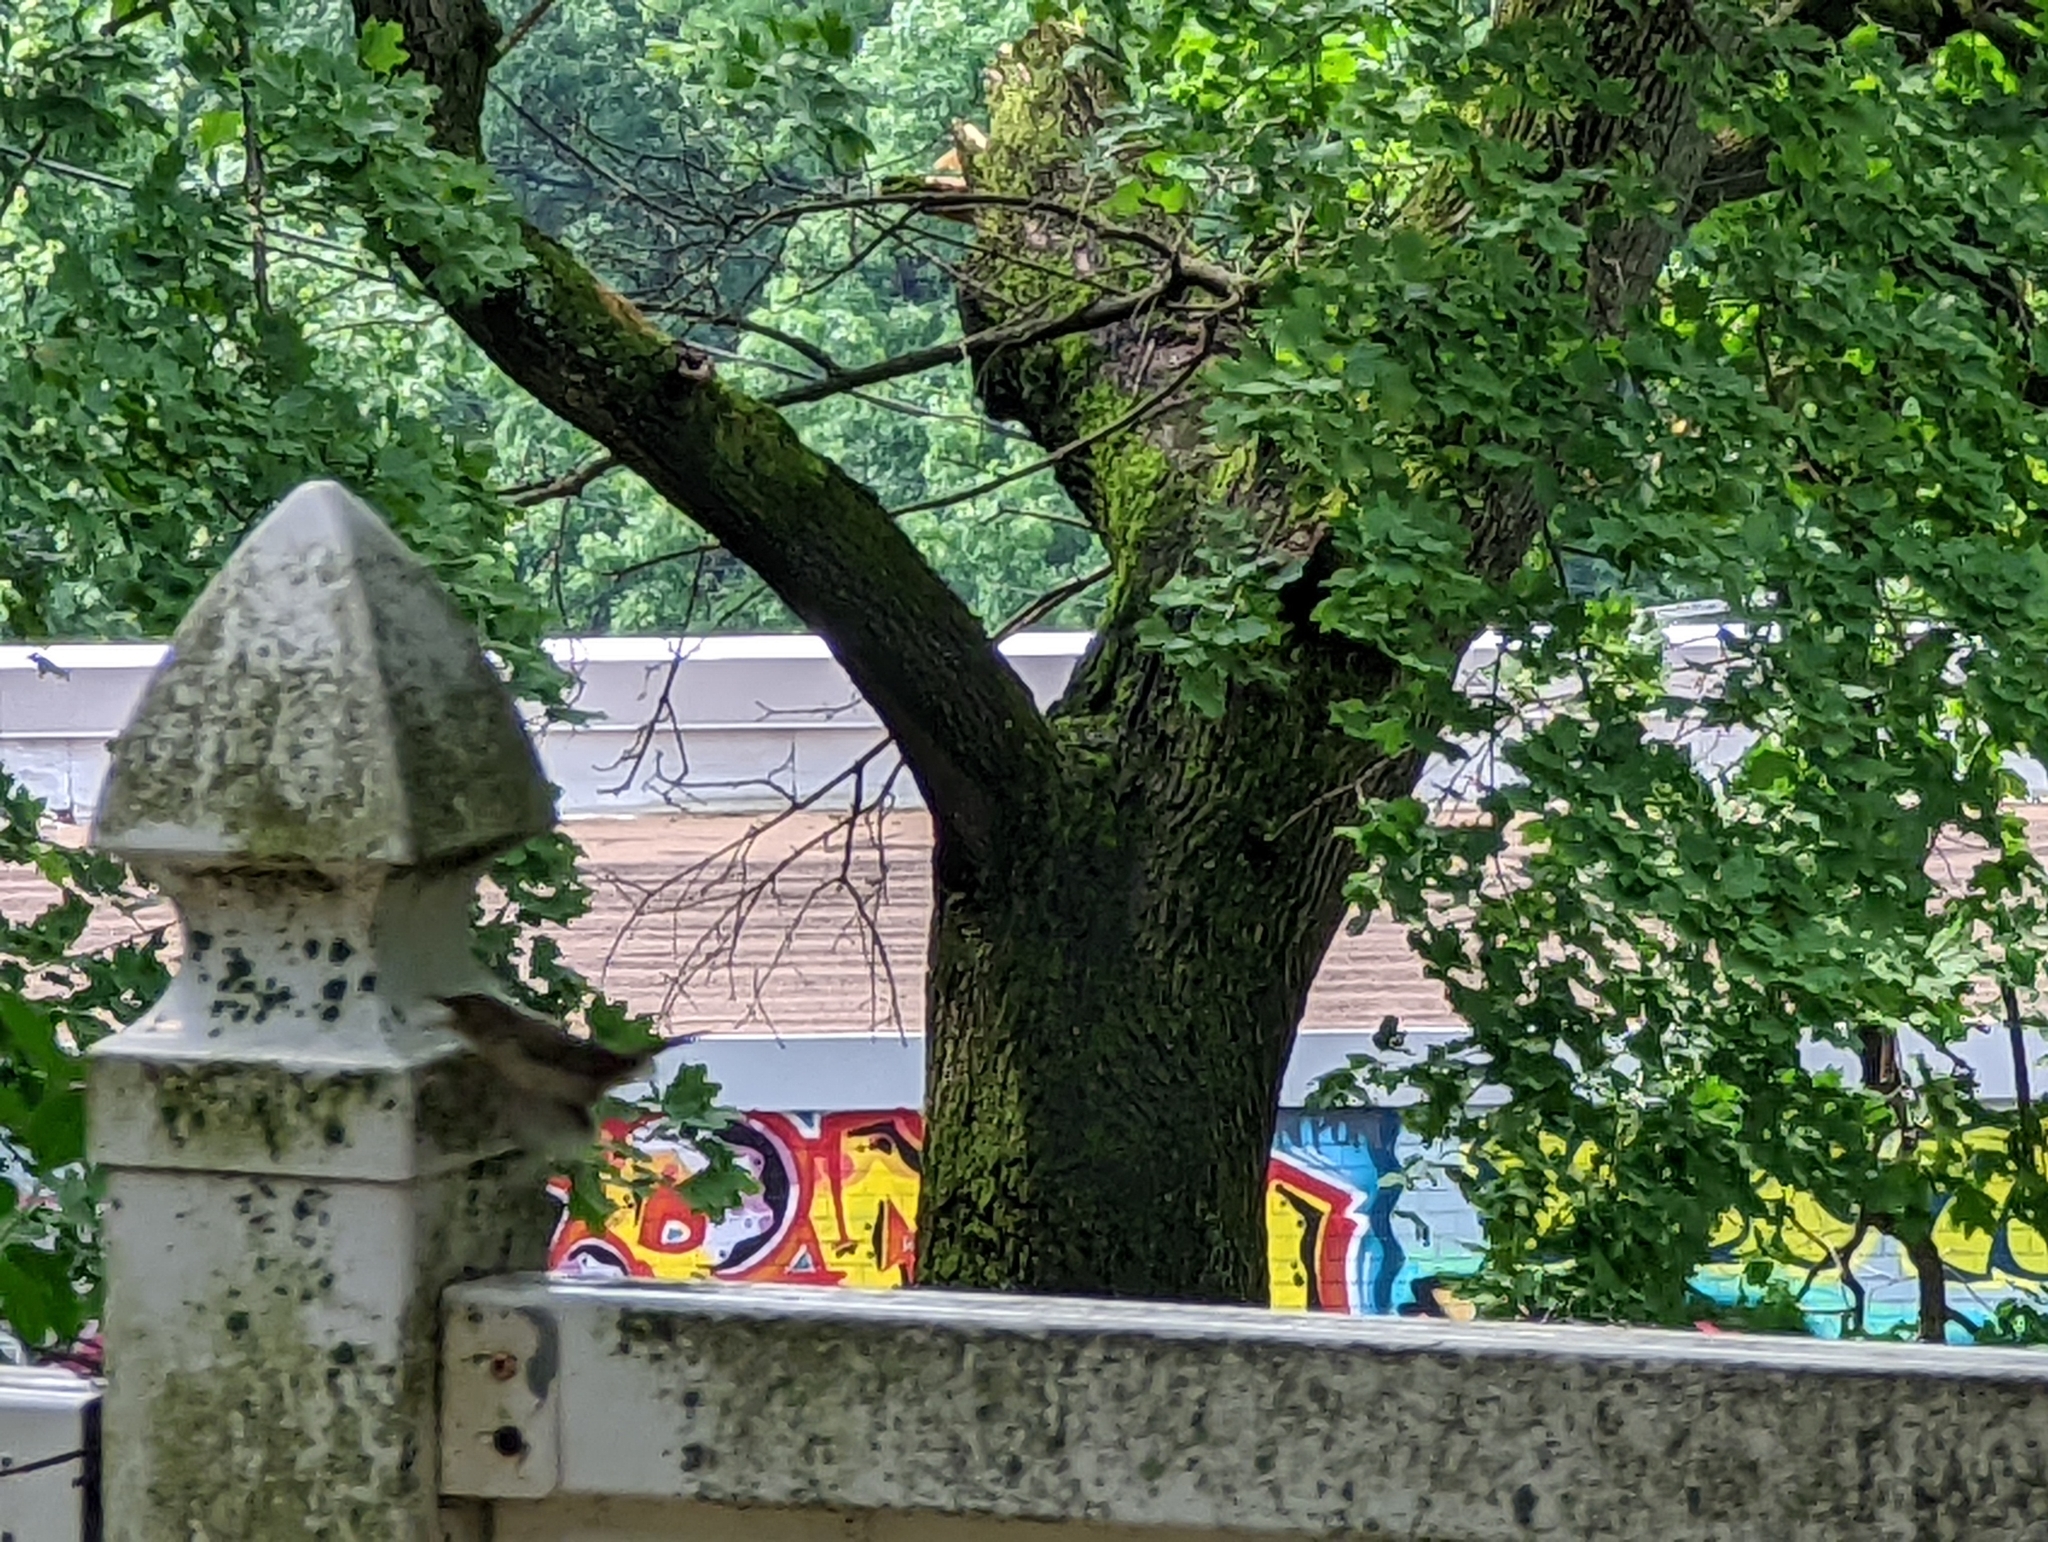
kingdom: Animalia
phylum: Chordata
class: Aves
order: Passeriformes
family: Troglodytidae
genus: Troglodytes
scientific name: Troglodytes aedon
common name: House wren
